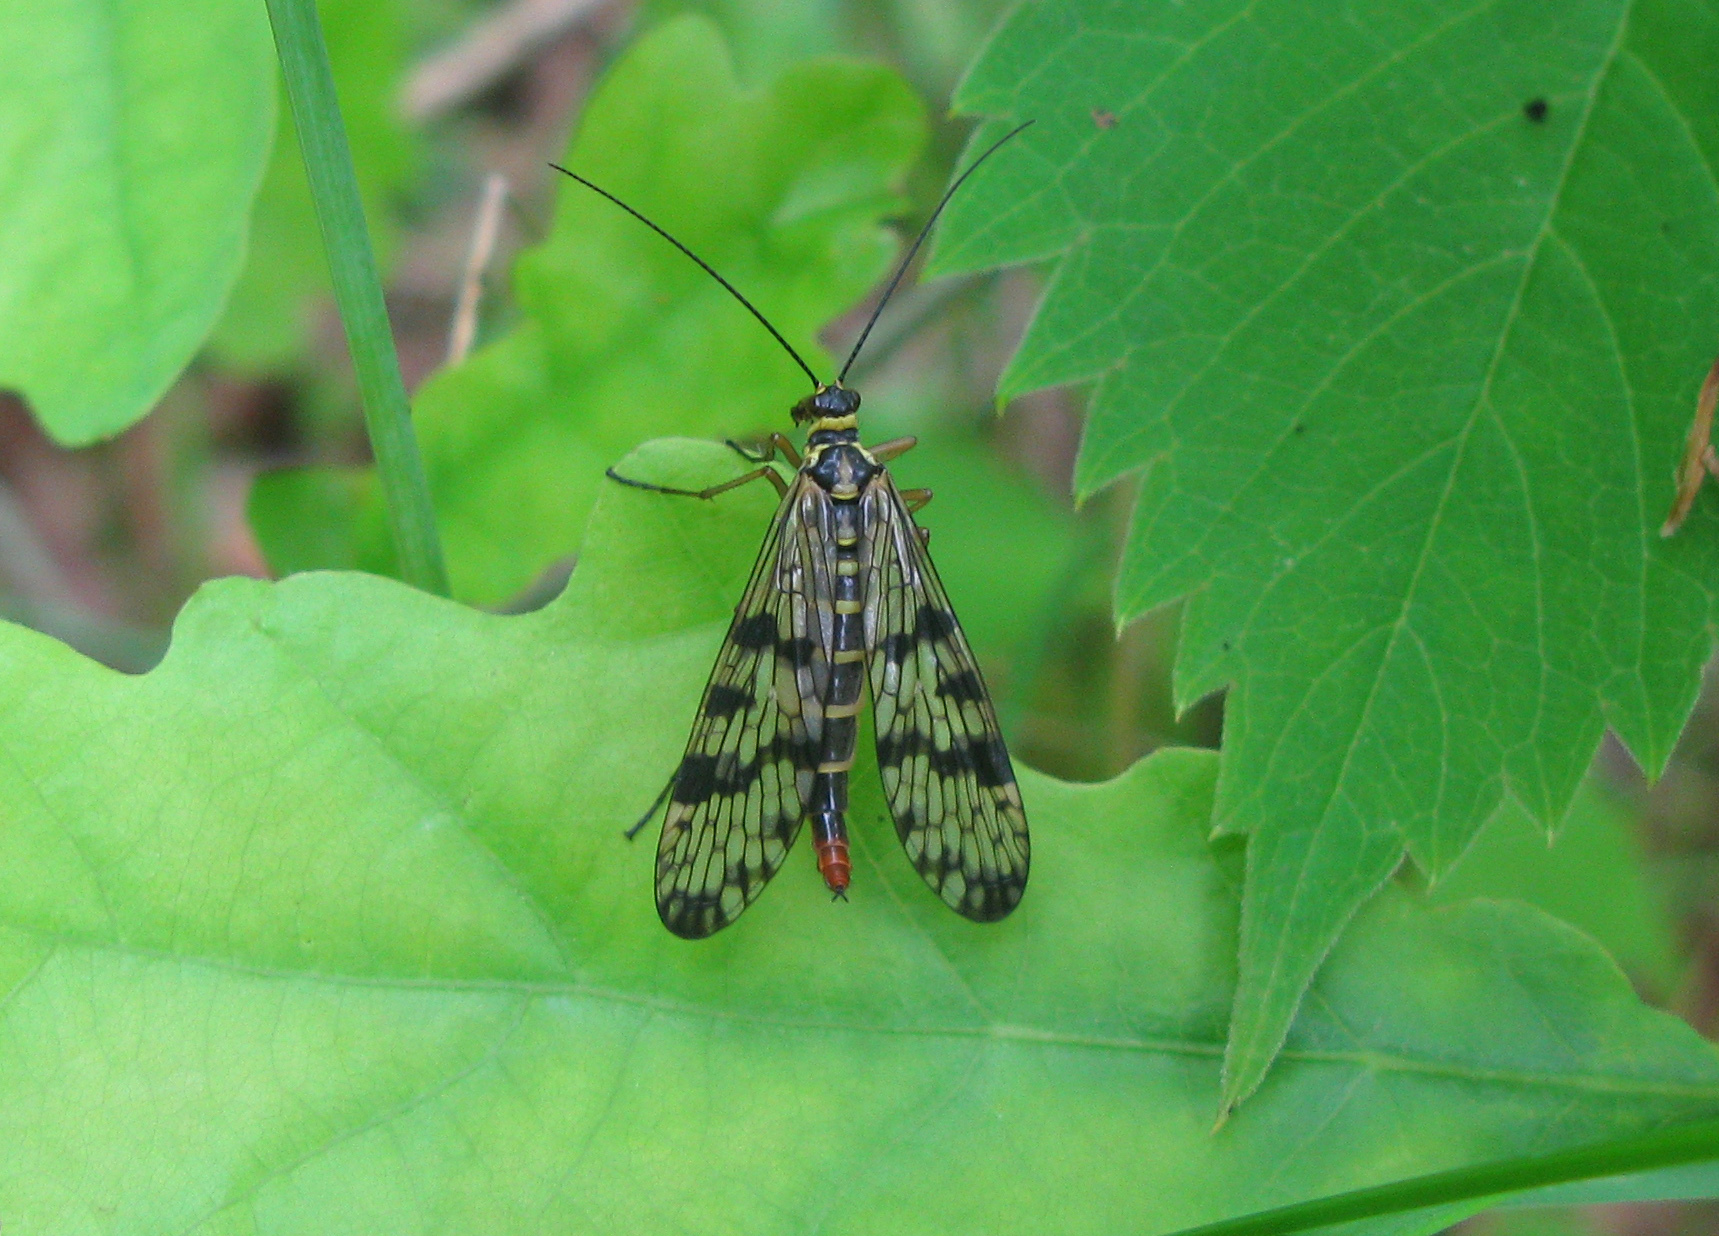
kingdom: Animalia
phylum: Arthropoda
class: Insecta
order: Mecoptera
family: Panorpidae
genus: Panorpa
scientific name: Panorpa communis
